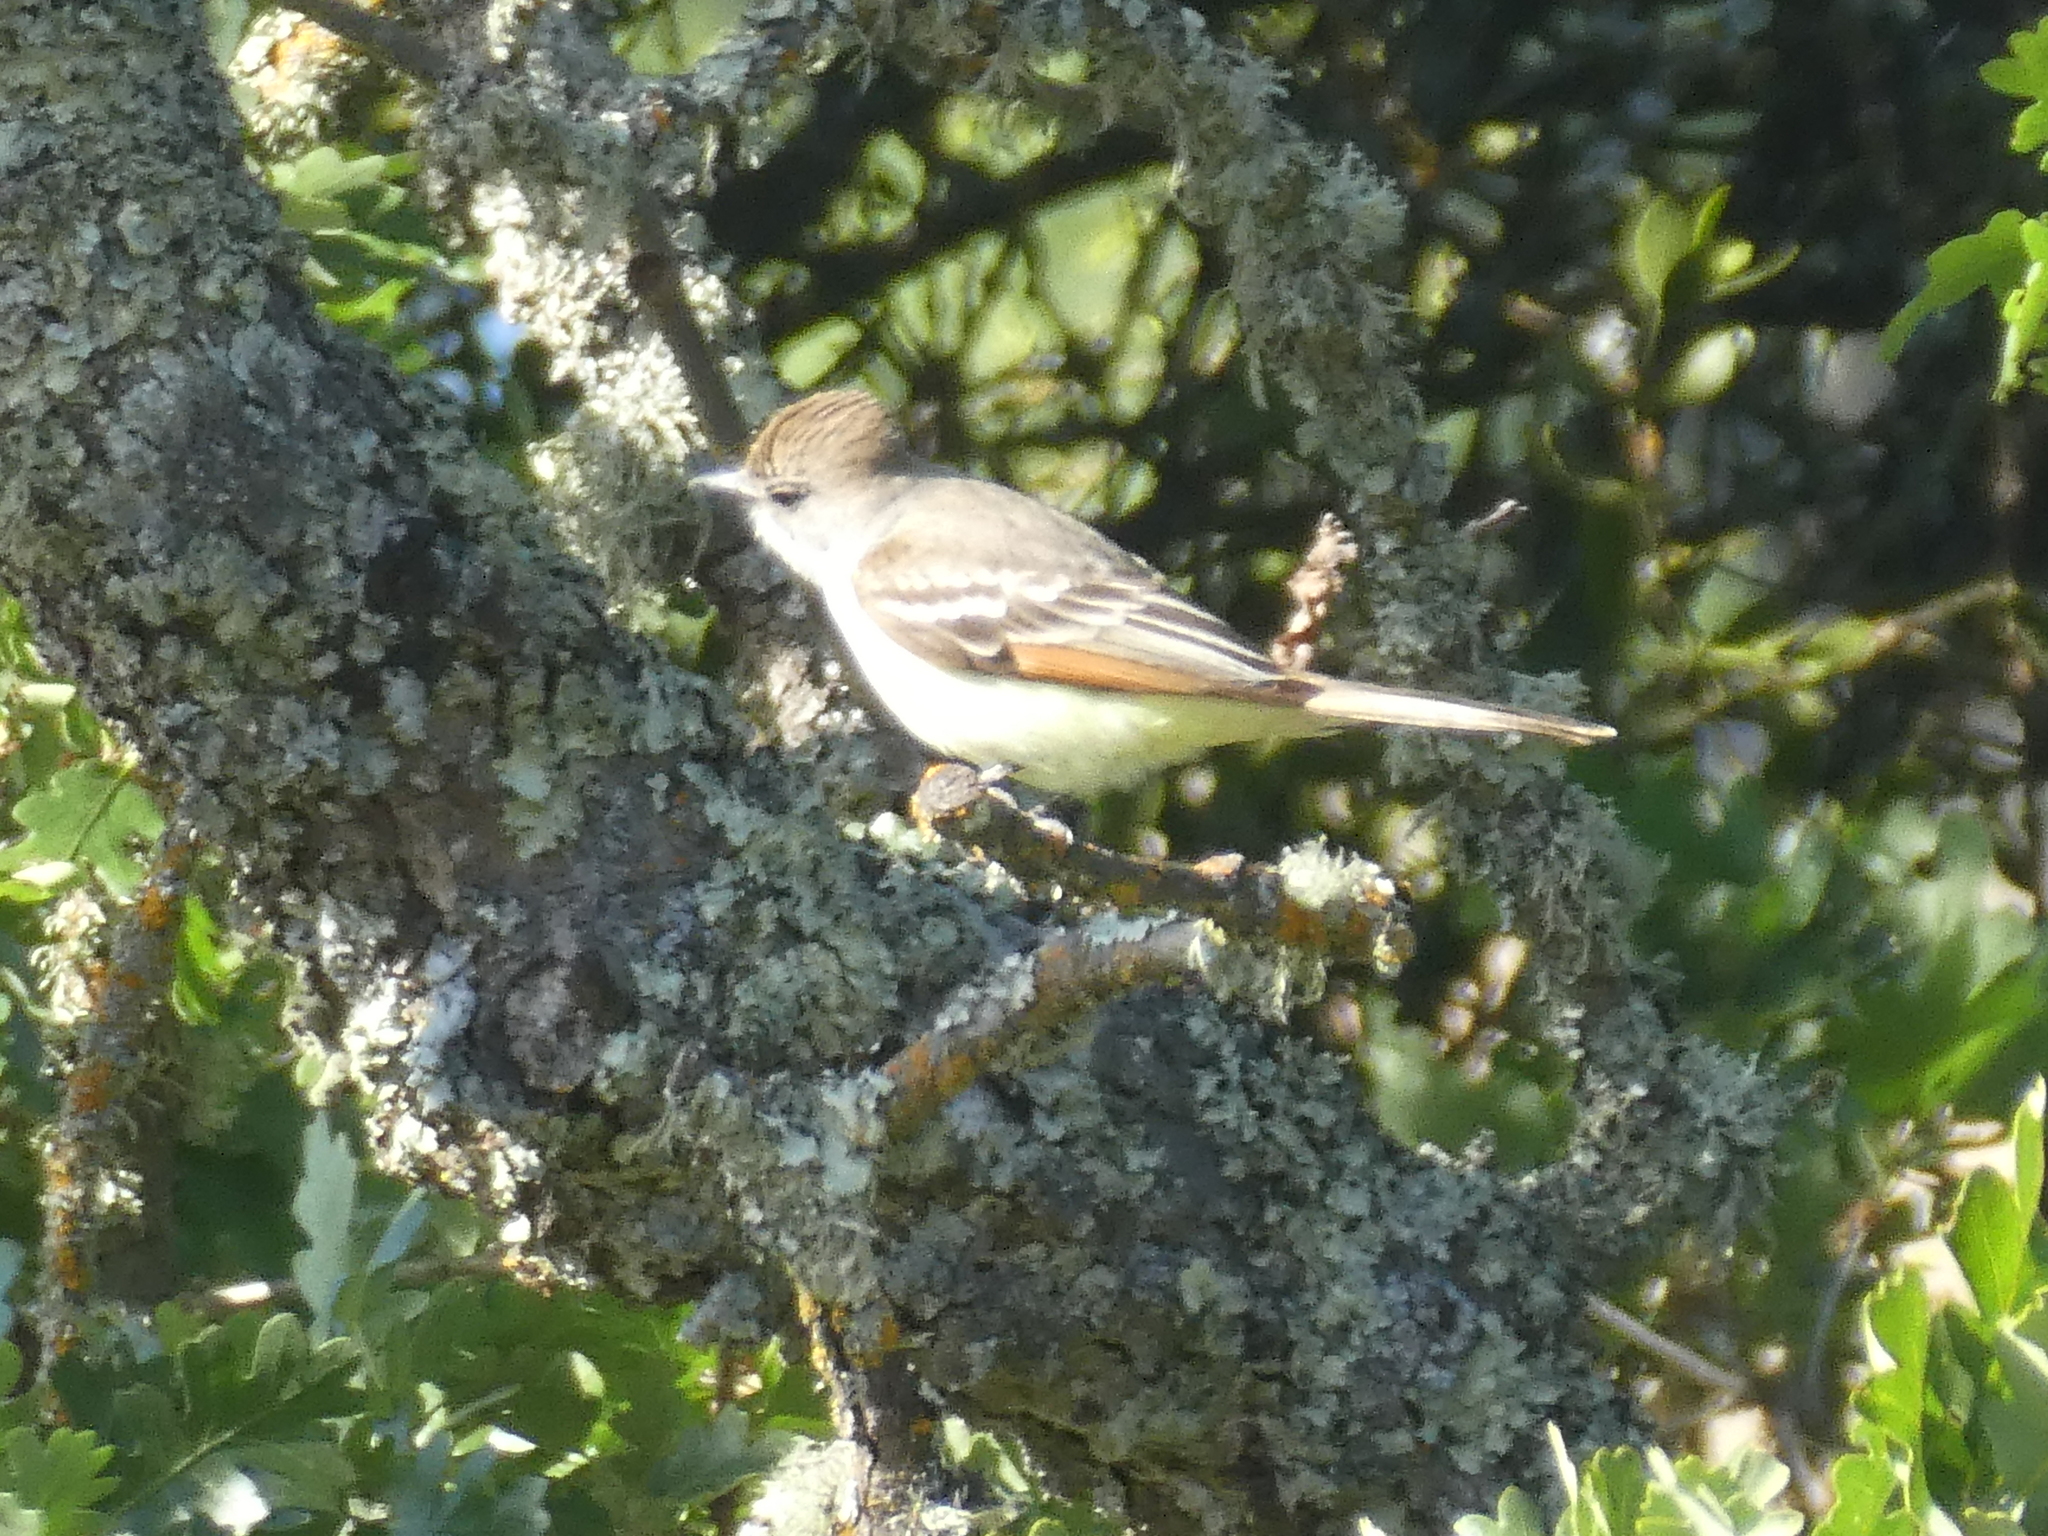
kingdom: Animalia
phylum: Chordata
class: Aves
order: Passeriformes
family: Tyrannidae
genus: Myiarchus
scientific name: Myiarchus cinerascens
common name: Ash-throated flycatcher
